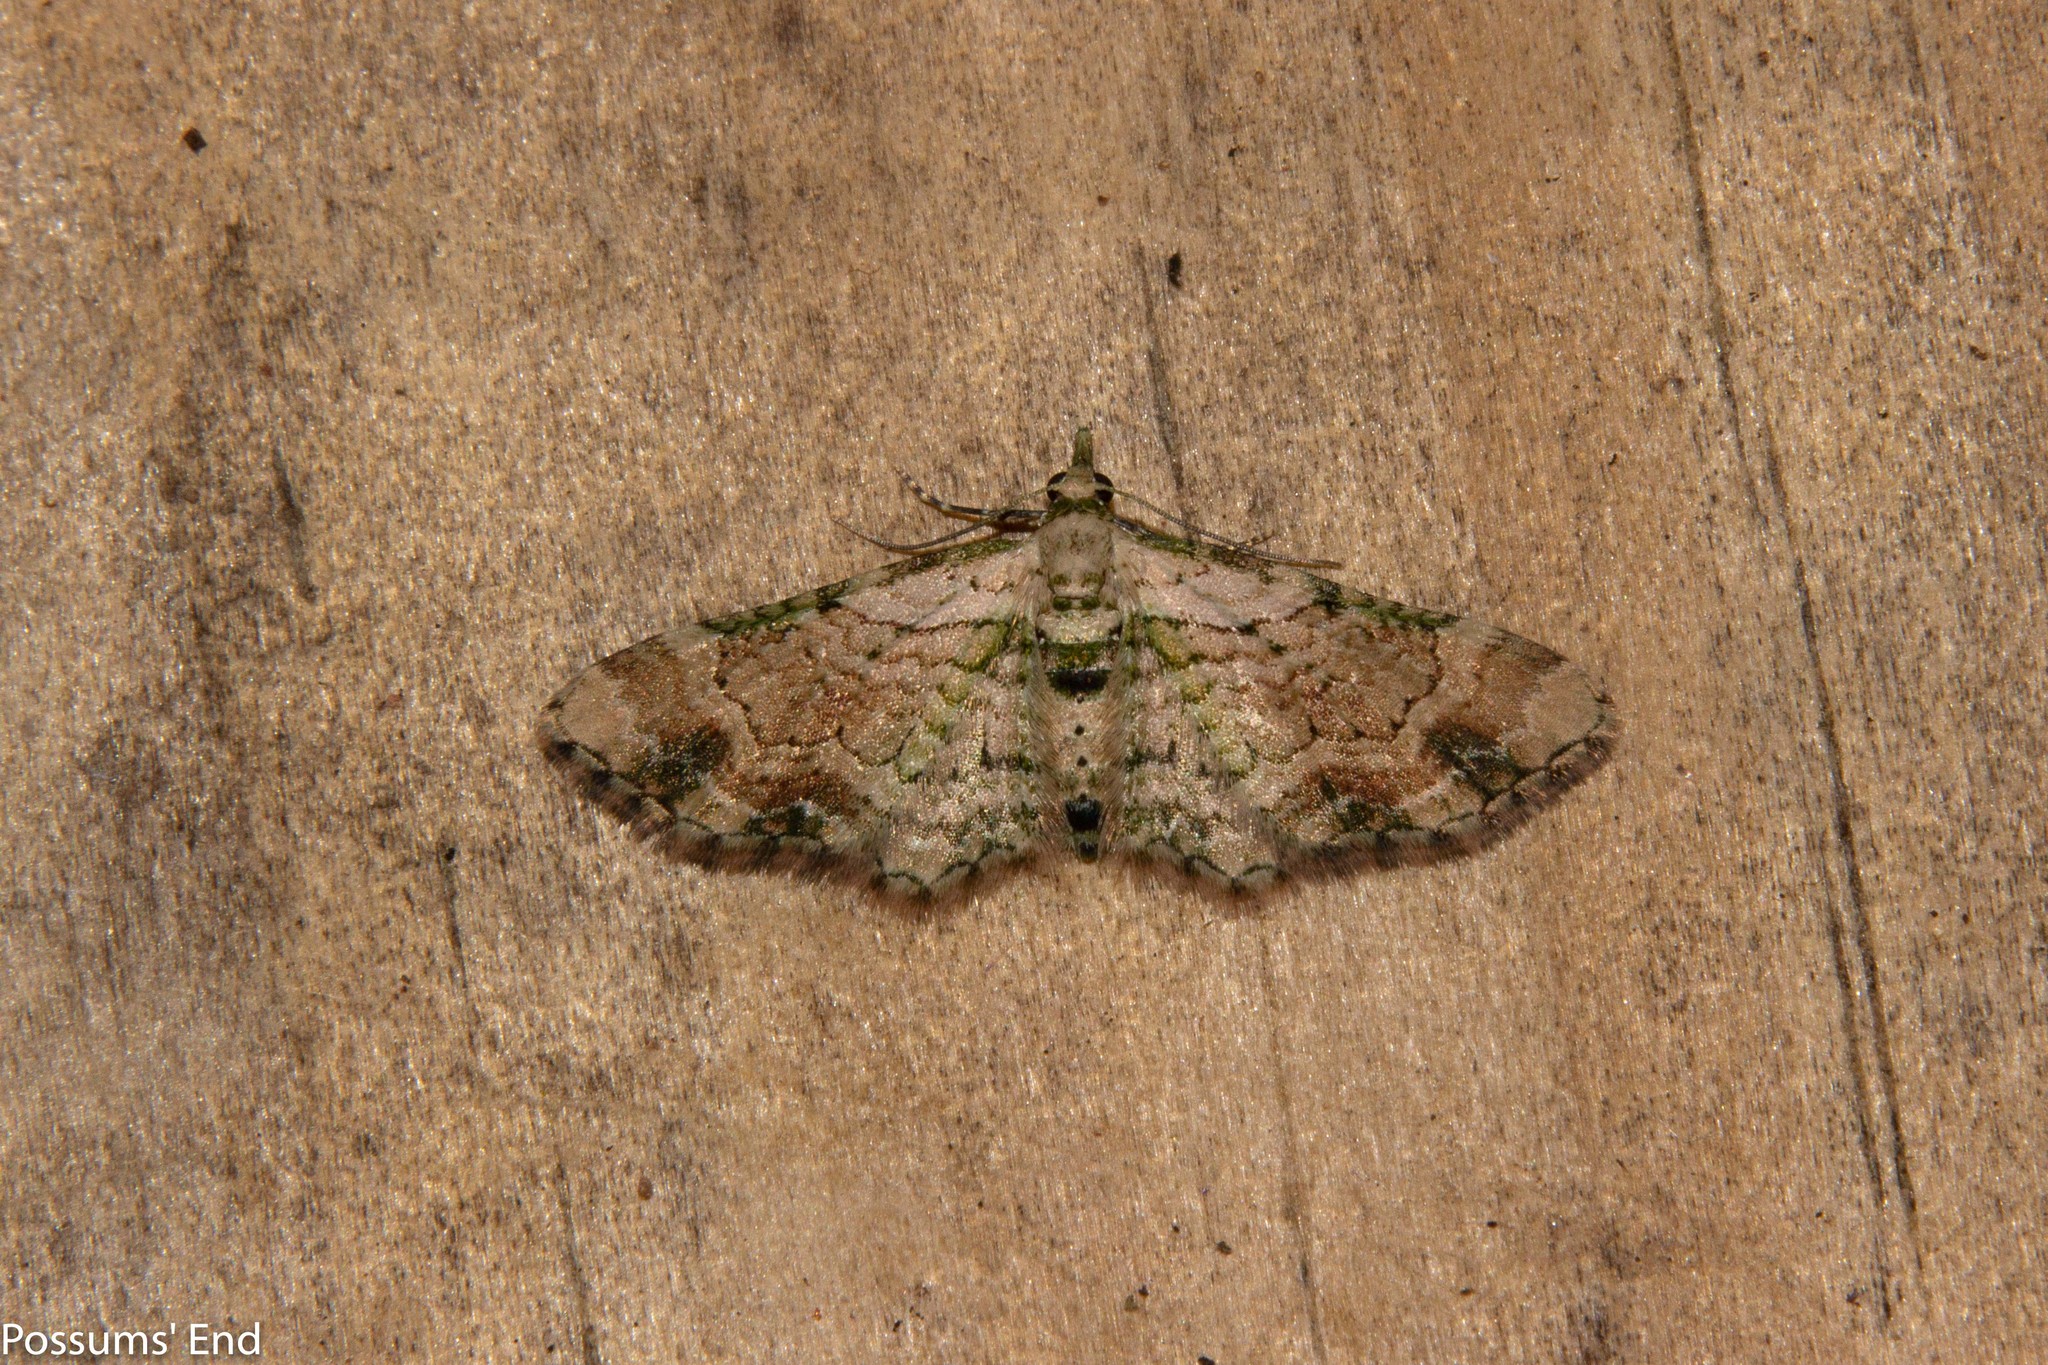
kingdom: Animalia
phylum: Arthropoda
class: Insecta
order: Lepidoptera
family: Geometridae
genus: Chloroclystis
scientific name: Chloroclystis
